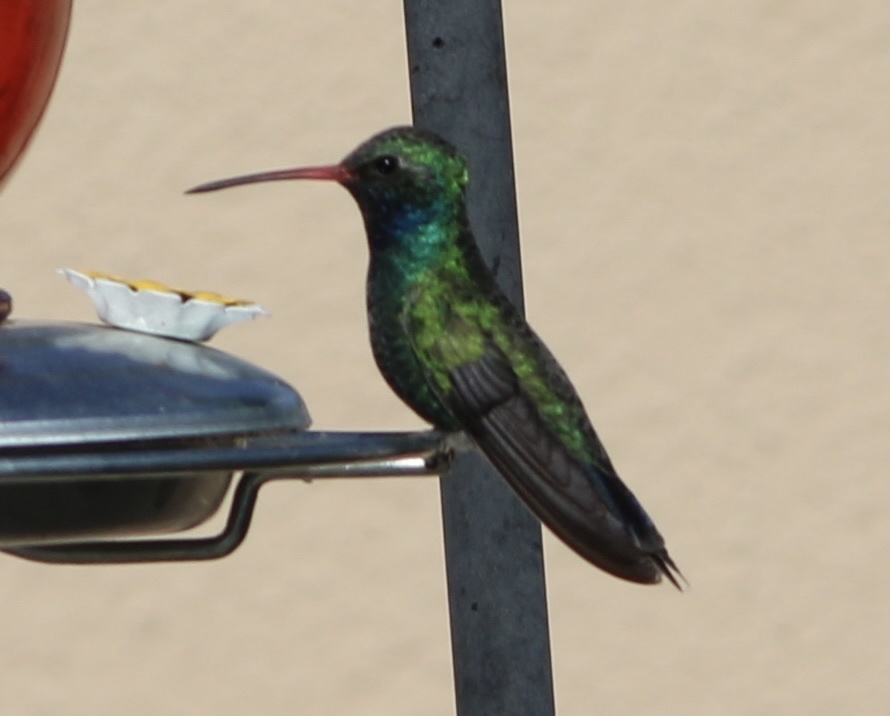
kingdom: Animalia
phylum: Chordata
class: Aves
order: Apodiformes
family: Trochilidae
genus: Cynanthus
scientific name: Cynanthus latirostris
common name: Broad-billed hummingbird
